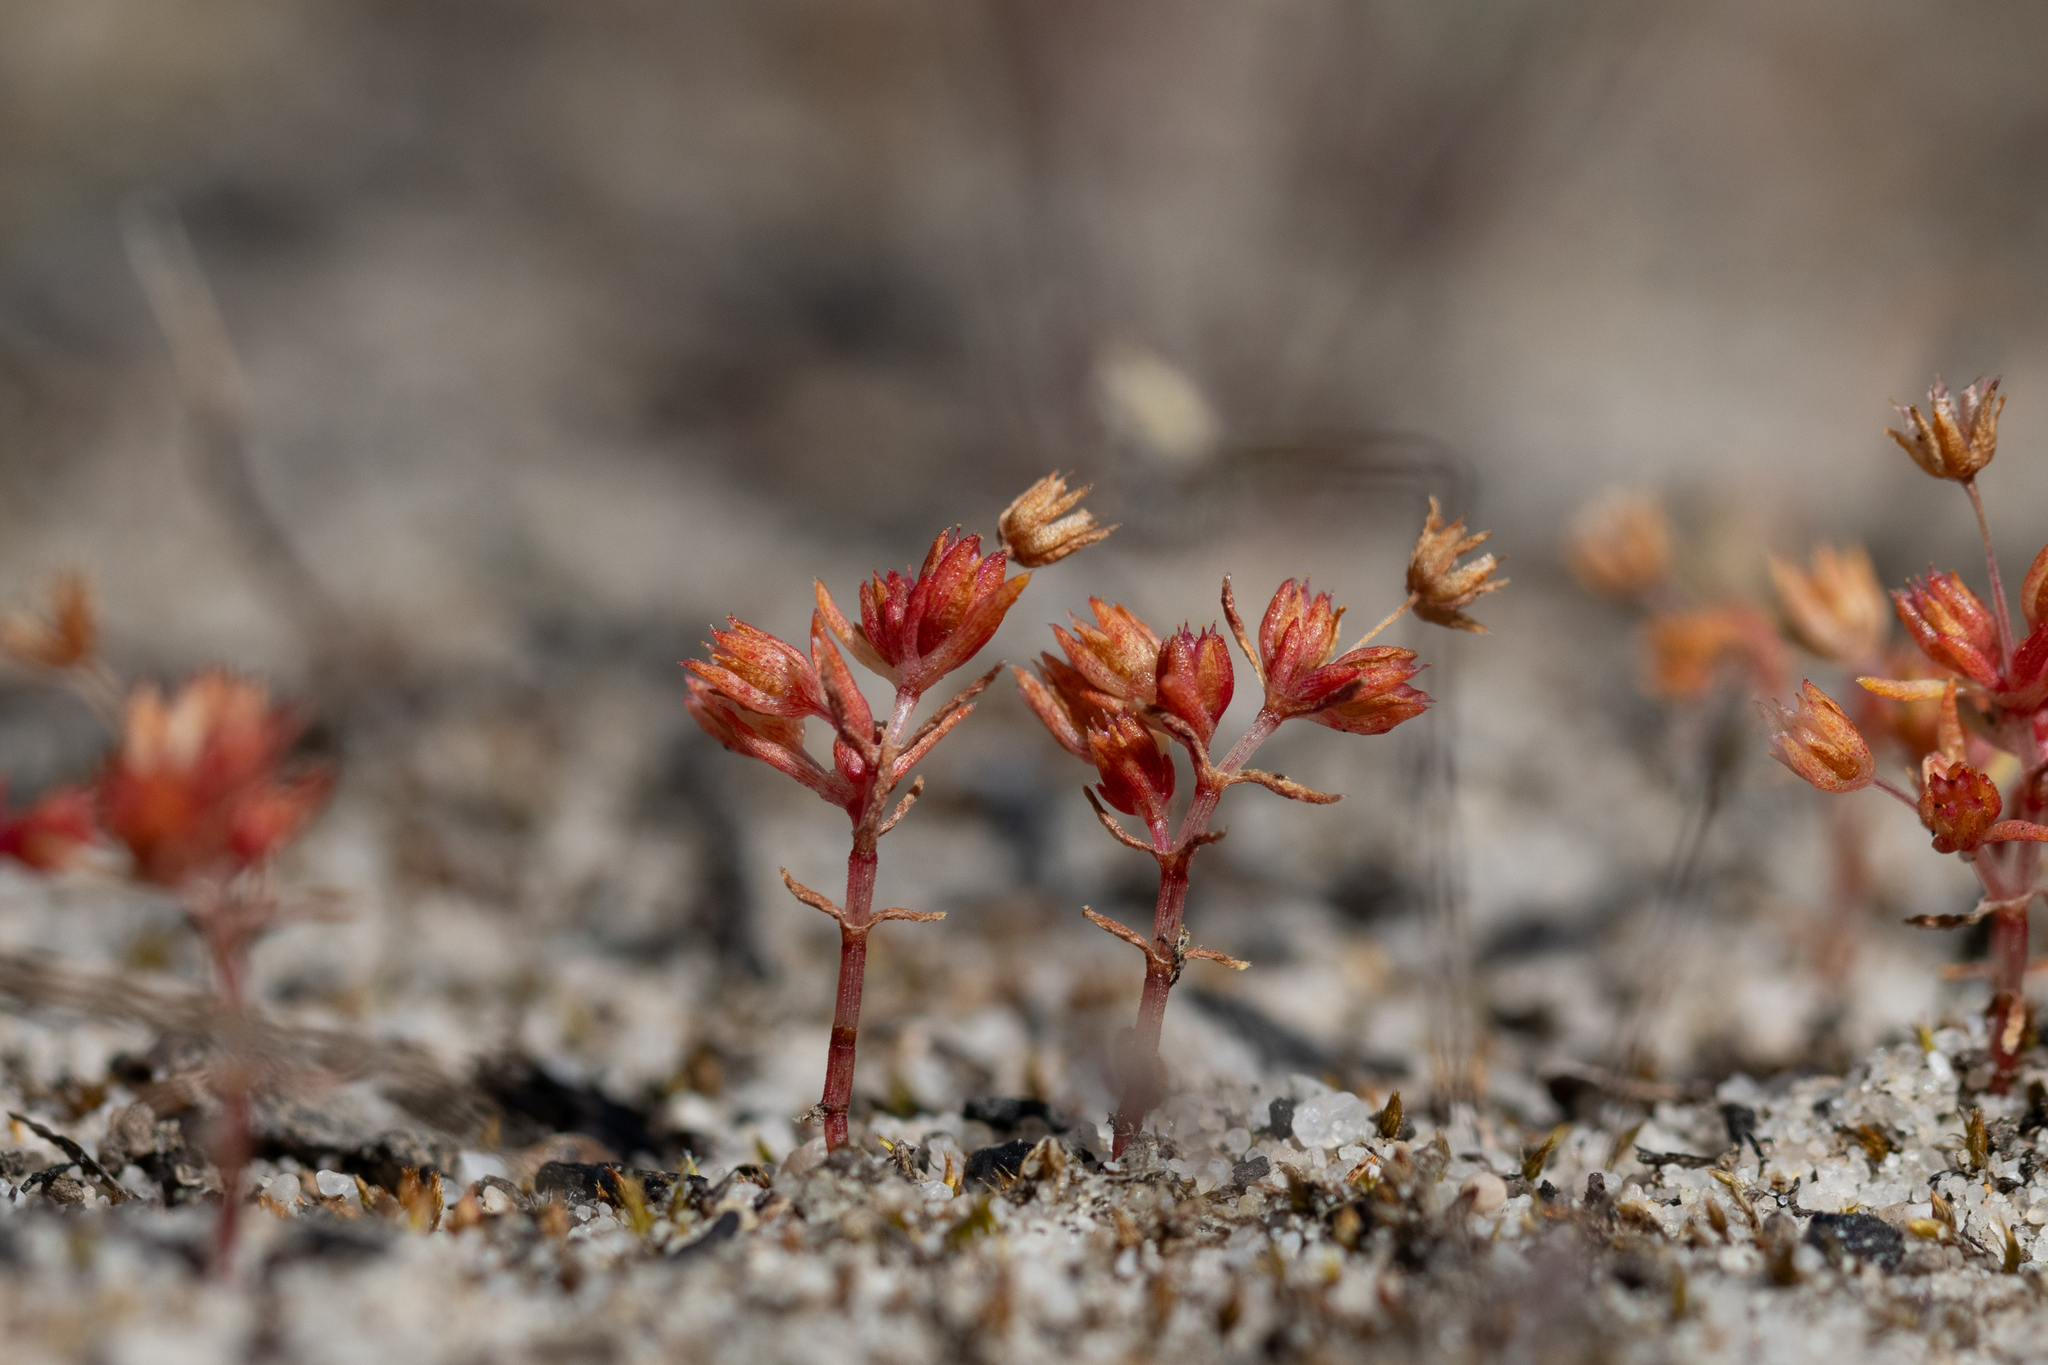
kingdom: Plantae
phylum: Tracheophyta
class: Magnoliopsida
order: Saxifragales
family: Crassulaceae
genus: Crassula
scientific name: Crassula decumbens
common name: Scilly pigmyweed
